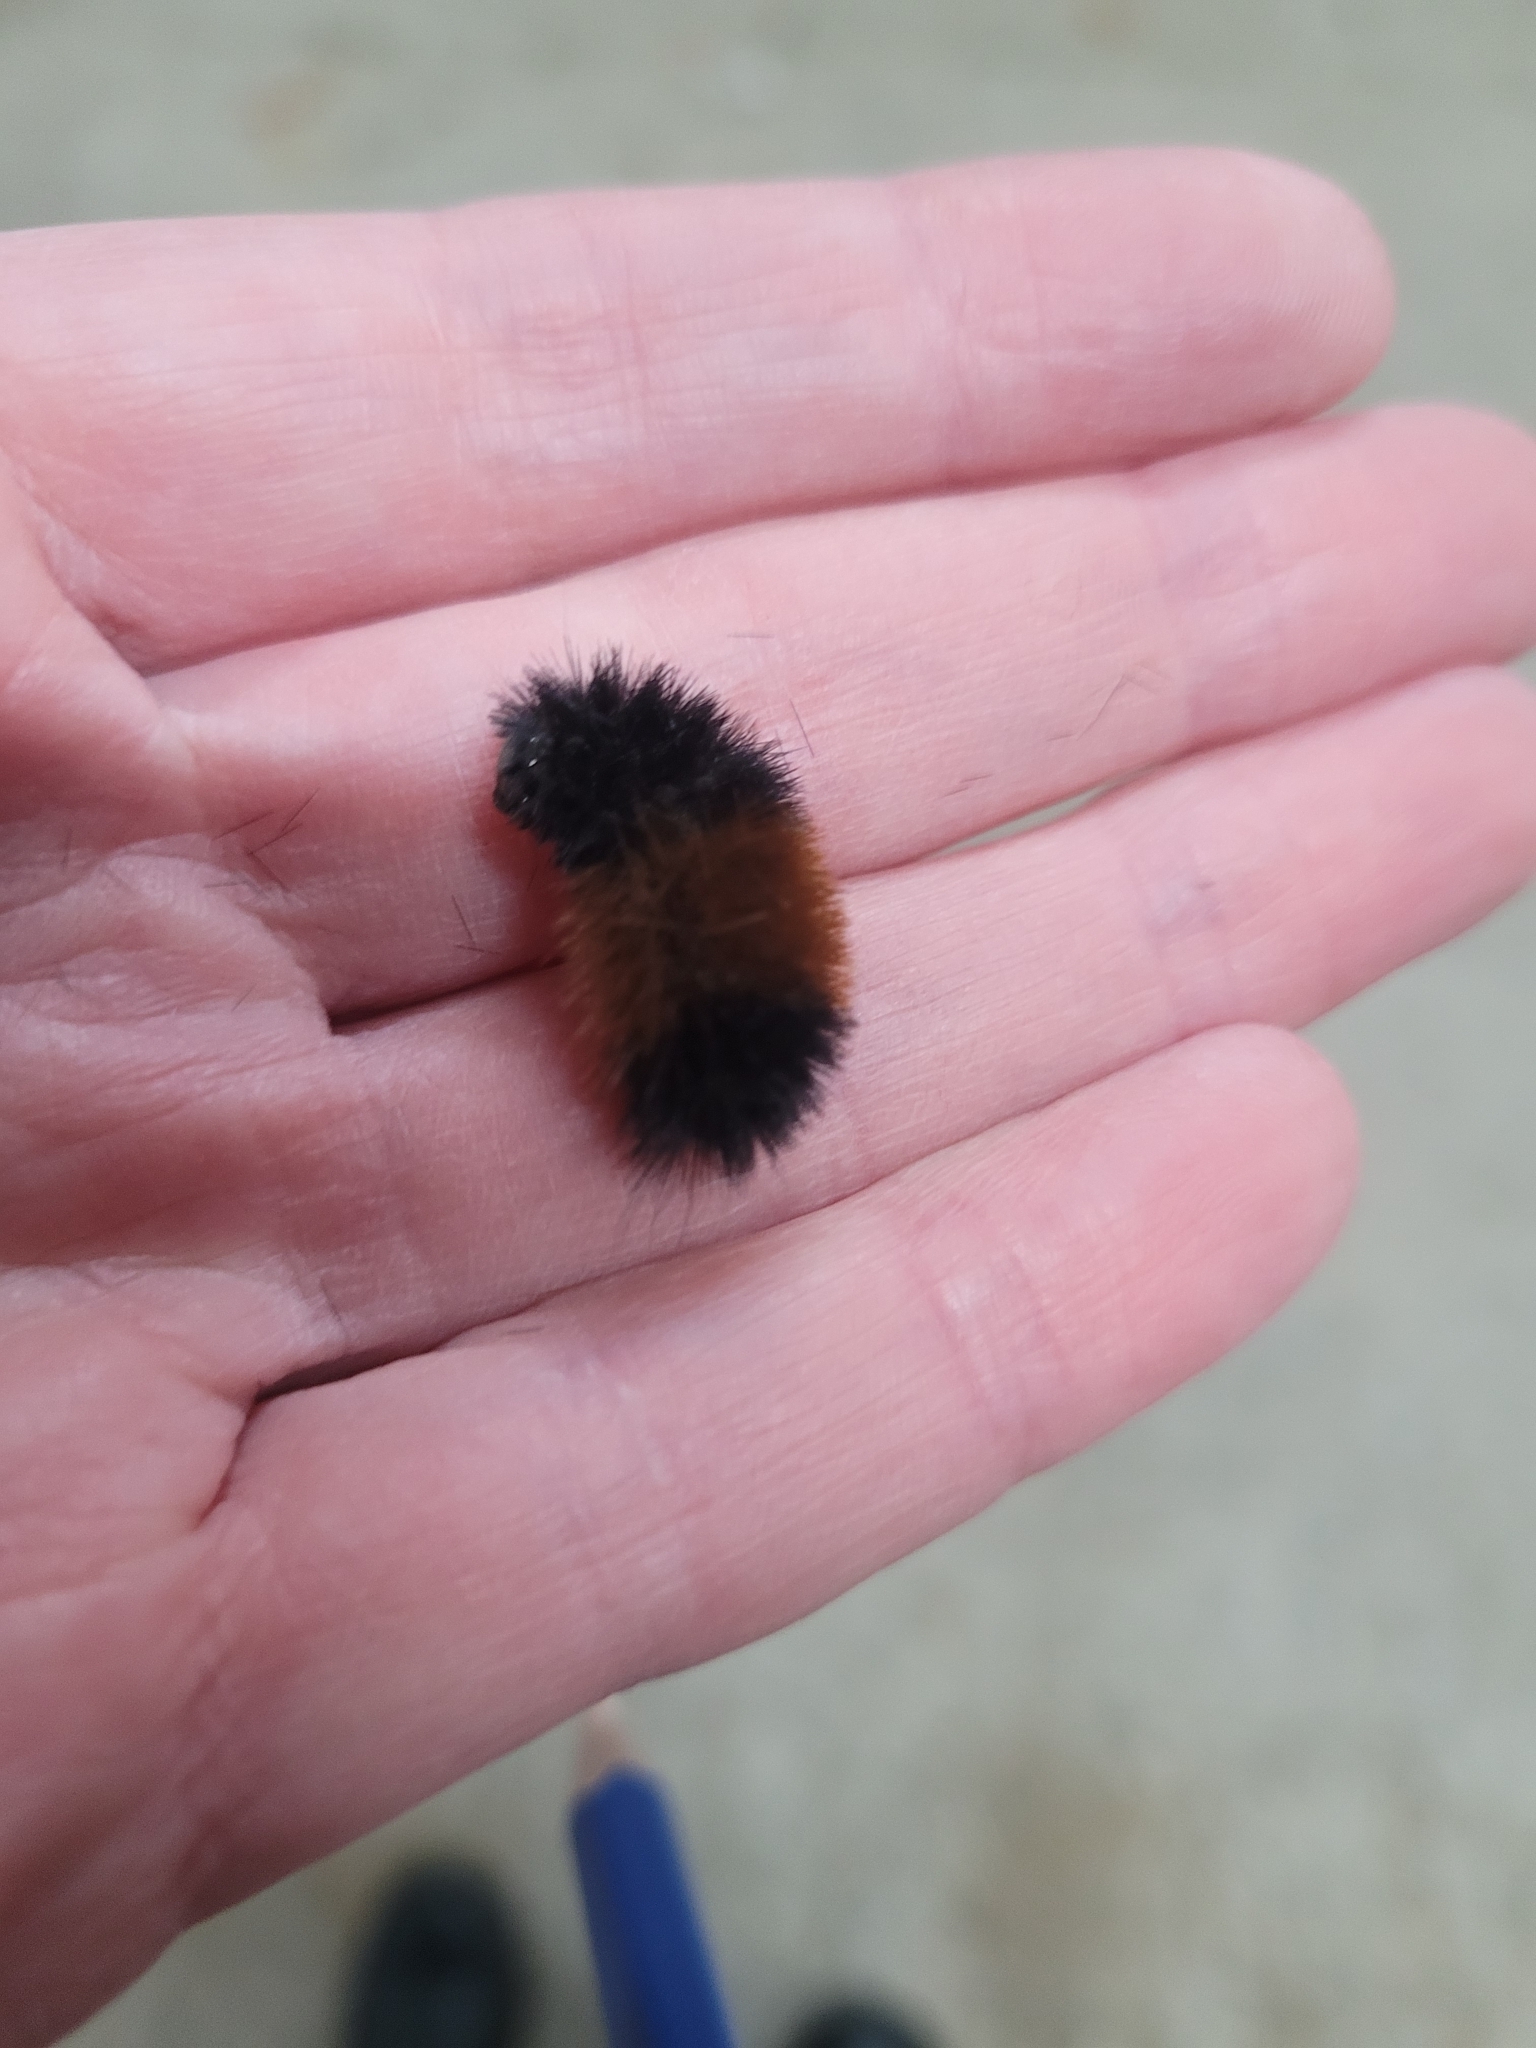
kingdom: Animalia
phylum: Arthropoda
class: Insecta
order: Lepidoptera
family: Erebidae
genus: Pyrrharctia
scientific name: Pyrrharctia isabella
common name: Isabella tiger moth
